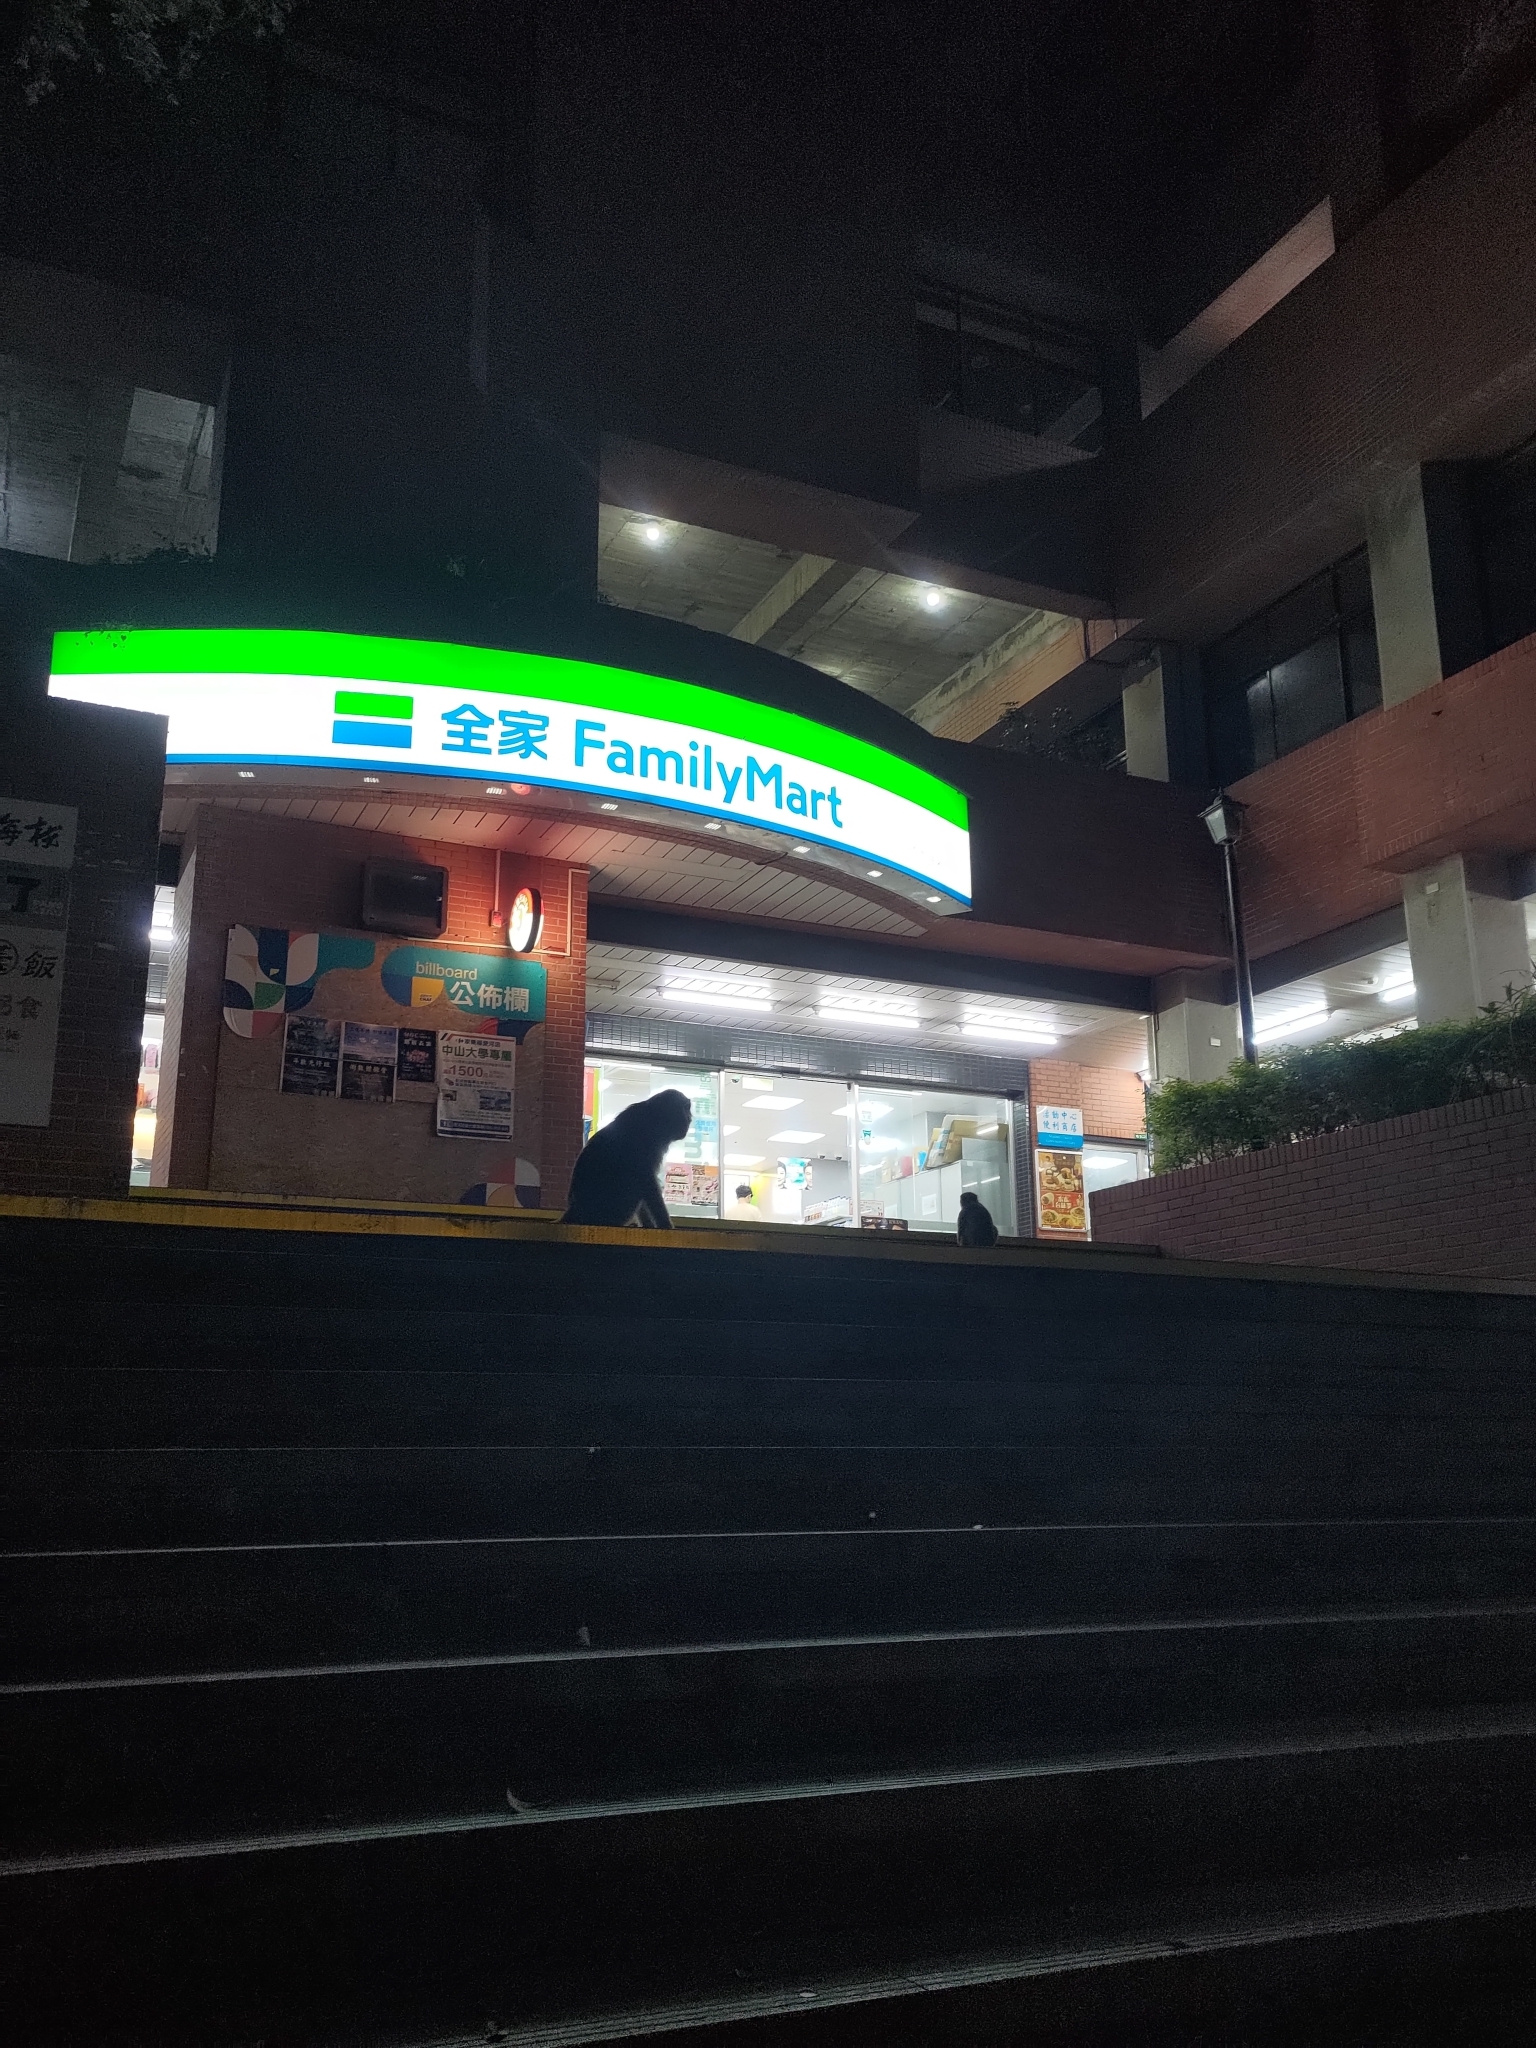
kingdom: Animalia
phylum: Chordata
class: Mammalia
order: Primates
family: Cercopithecidae
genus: Macaca
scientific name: Macaca cyclopis
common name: Formosan rock macaque
